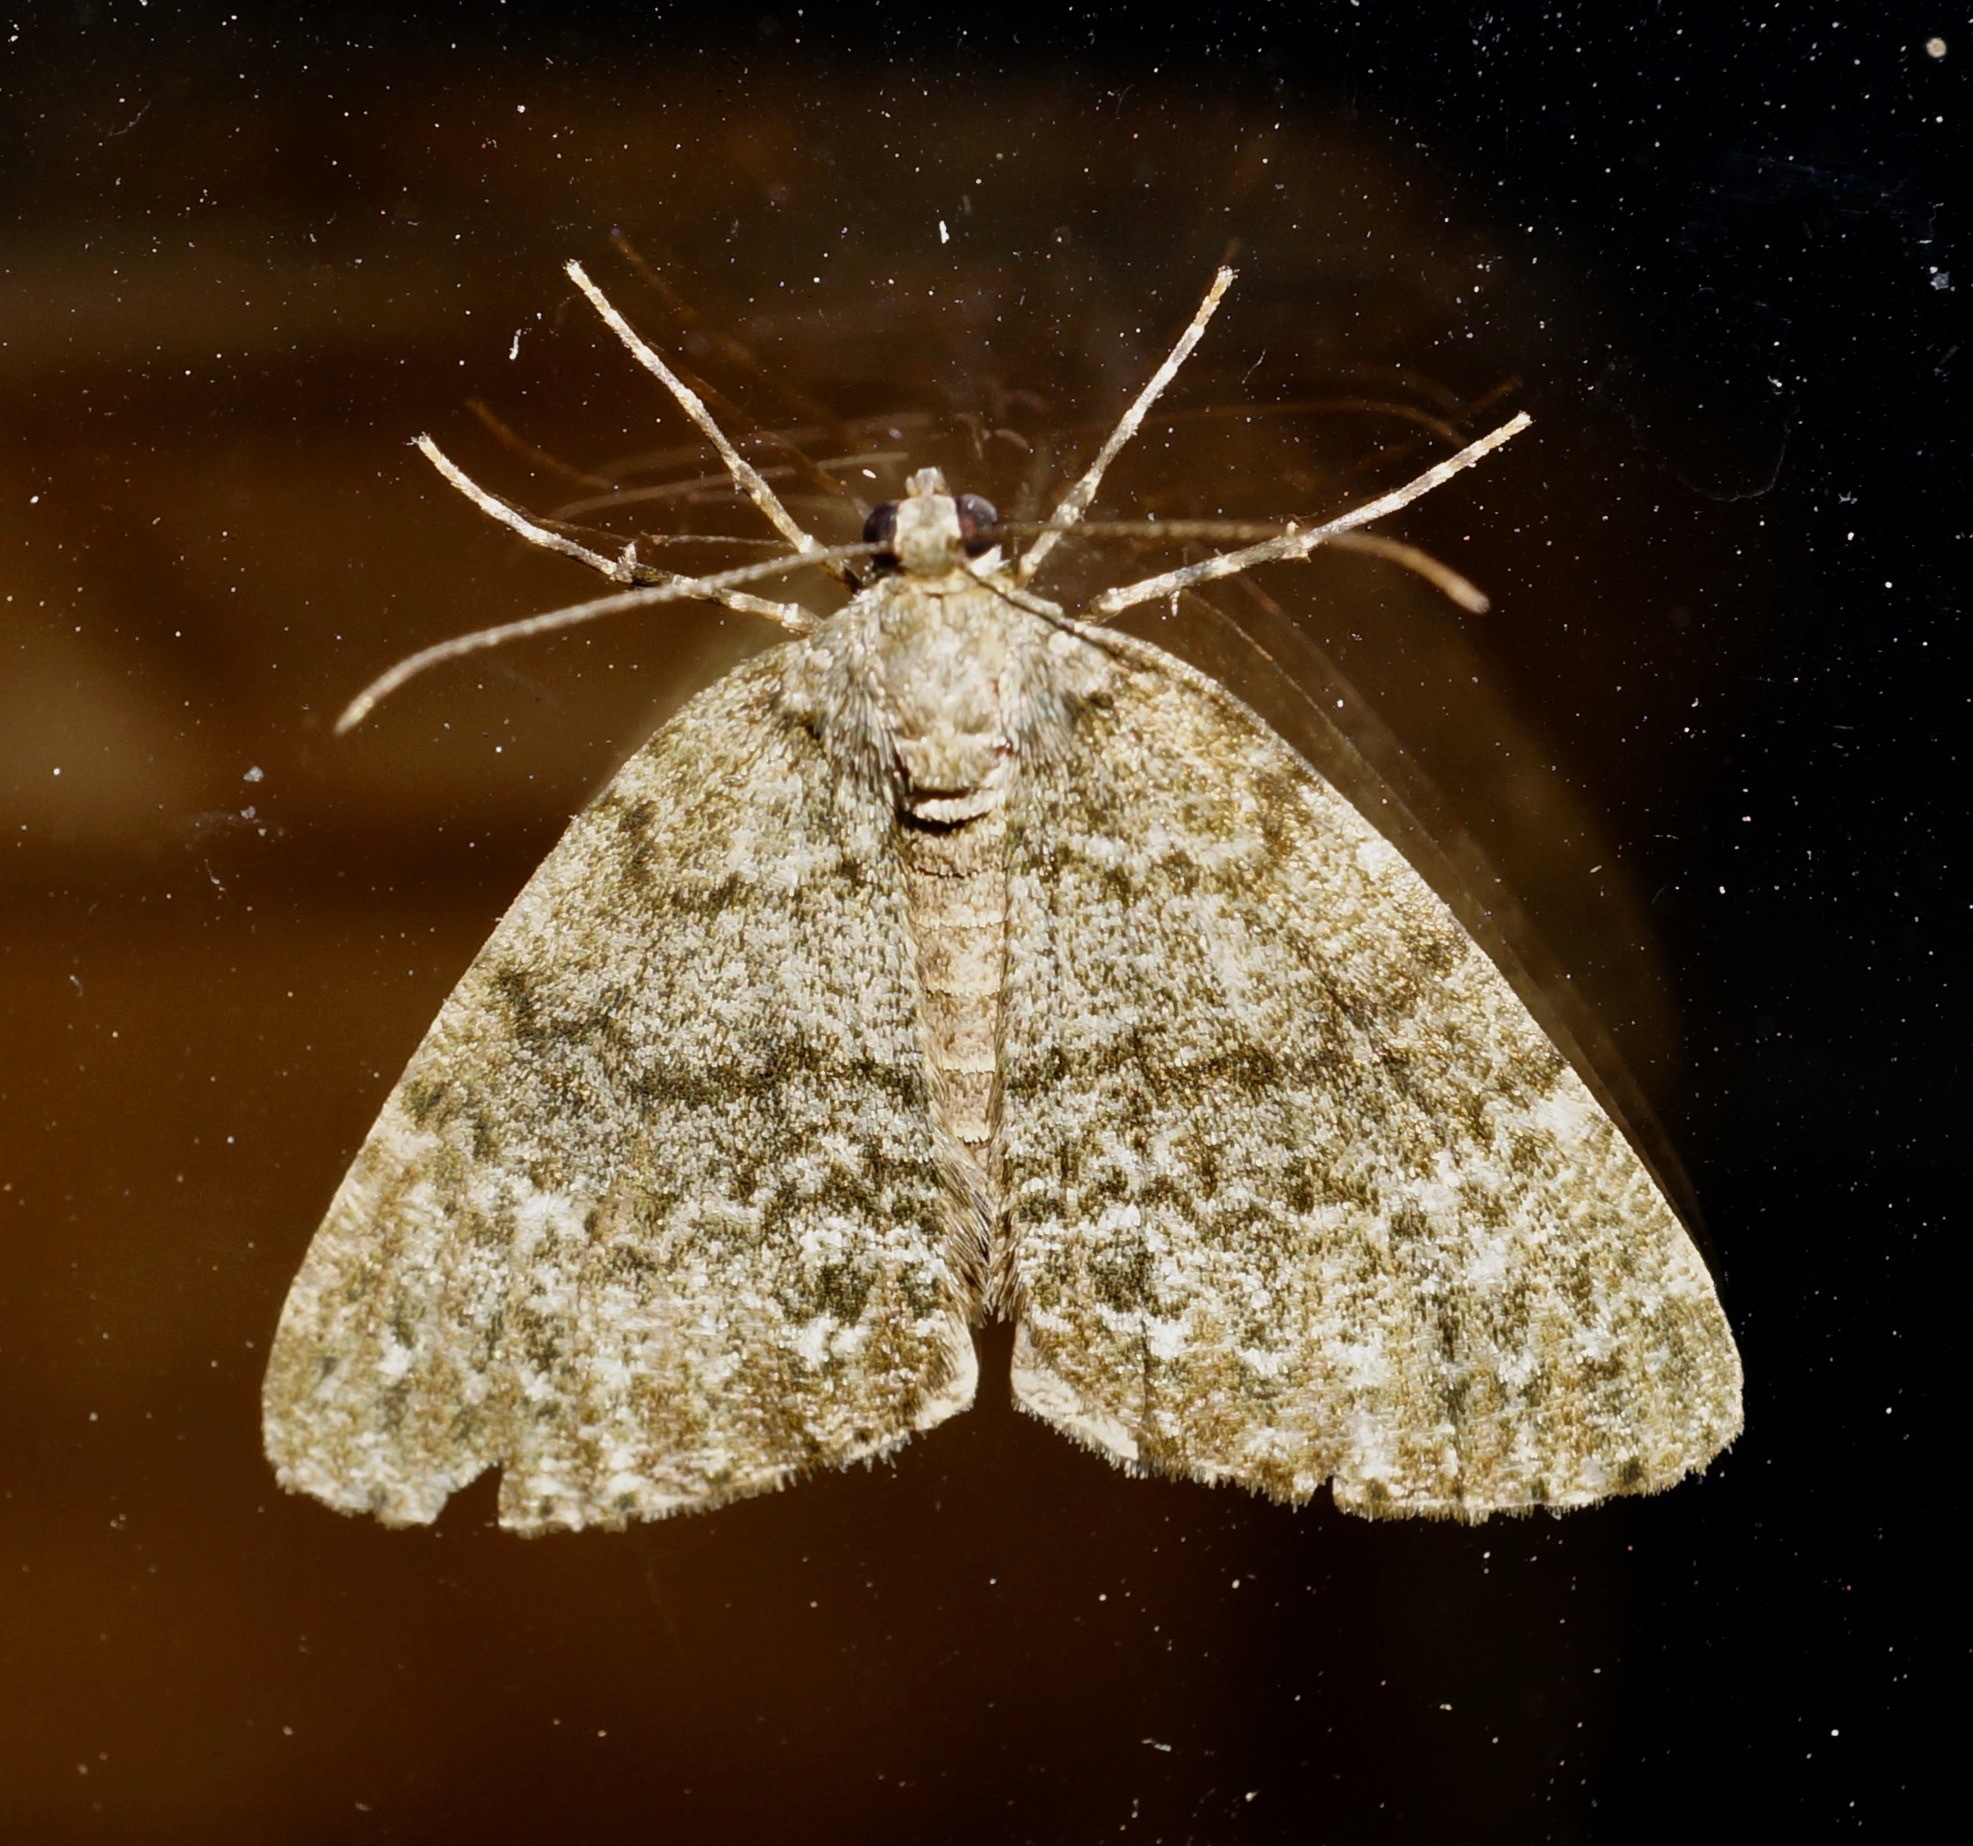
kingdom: Animalia
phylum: Arthropoda
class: Insecta
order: Lepidoptera
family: Geometridae
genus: Pseudocoremia
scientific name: Pseudocoremia indistincta
